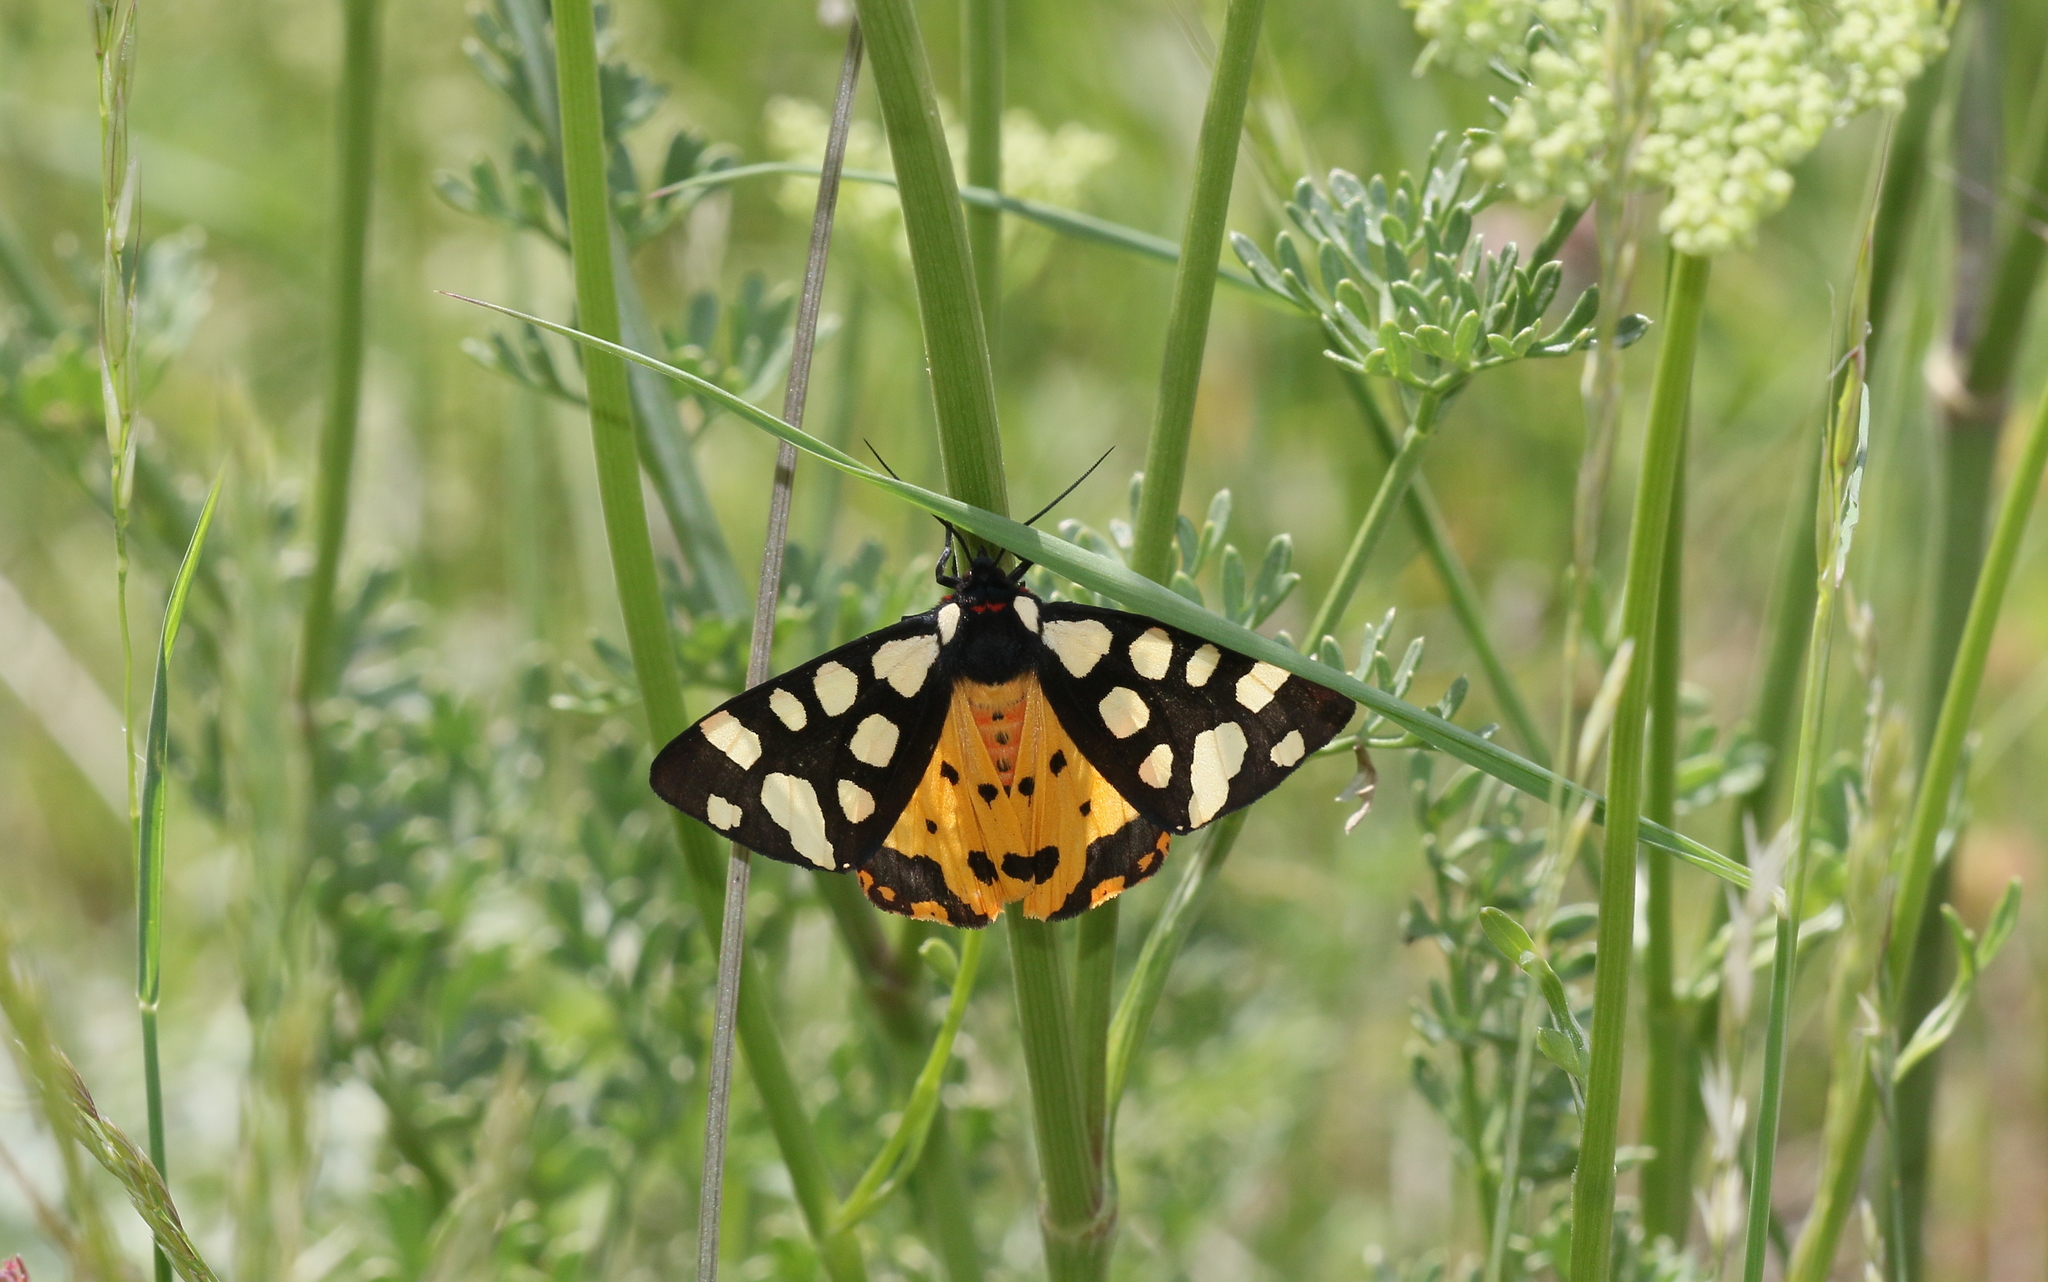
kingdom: Animalia
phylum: Arthropoda
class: Insecta
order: Lepidoptera
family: Erebidae
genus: Epicallia
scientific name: Epicallia villica
